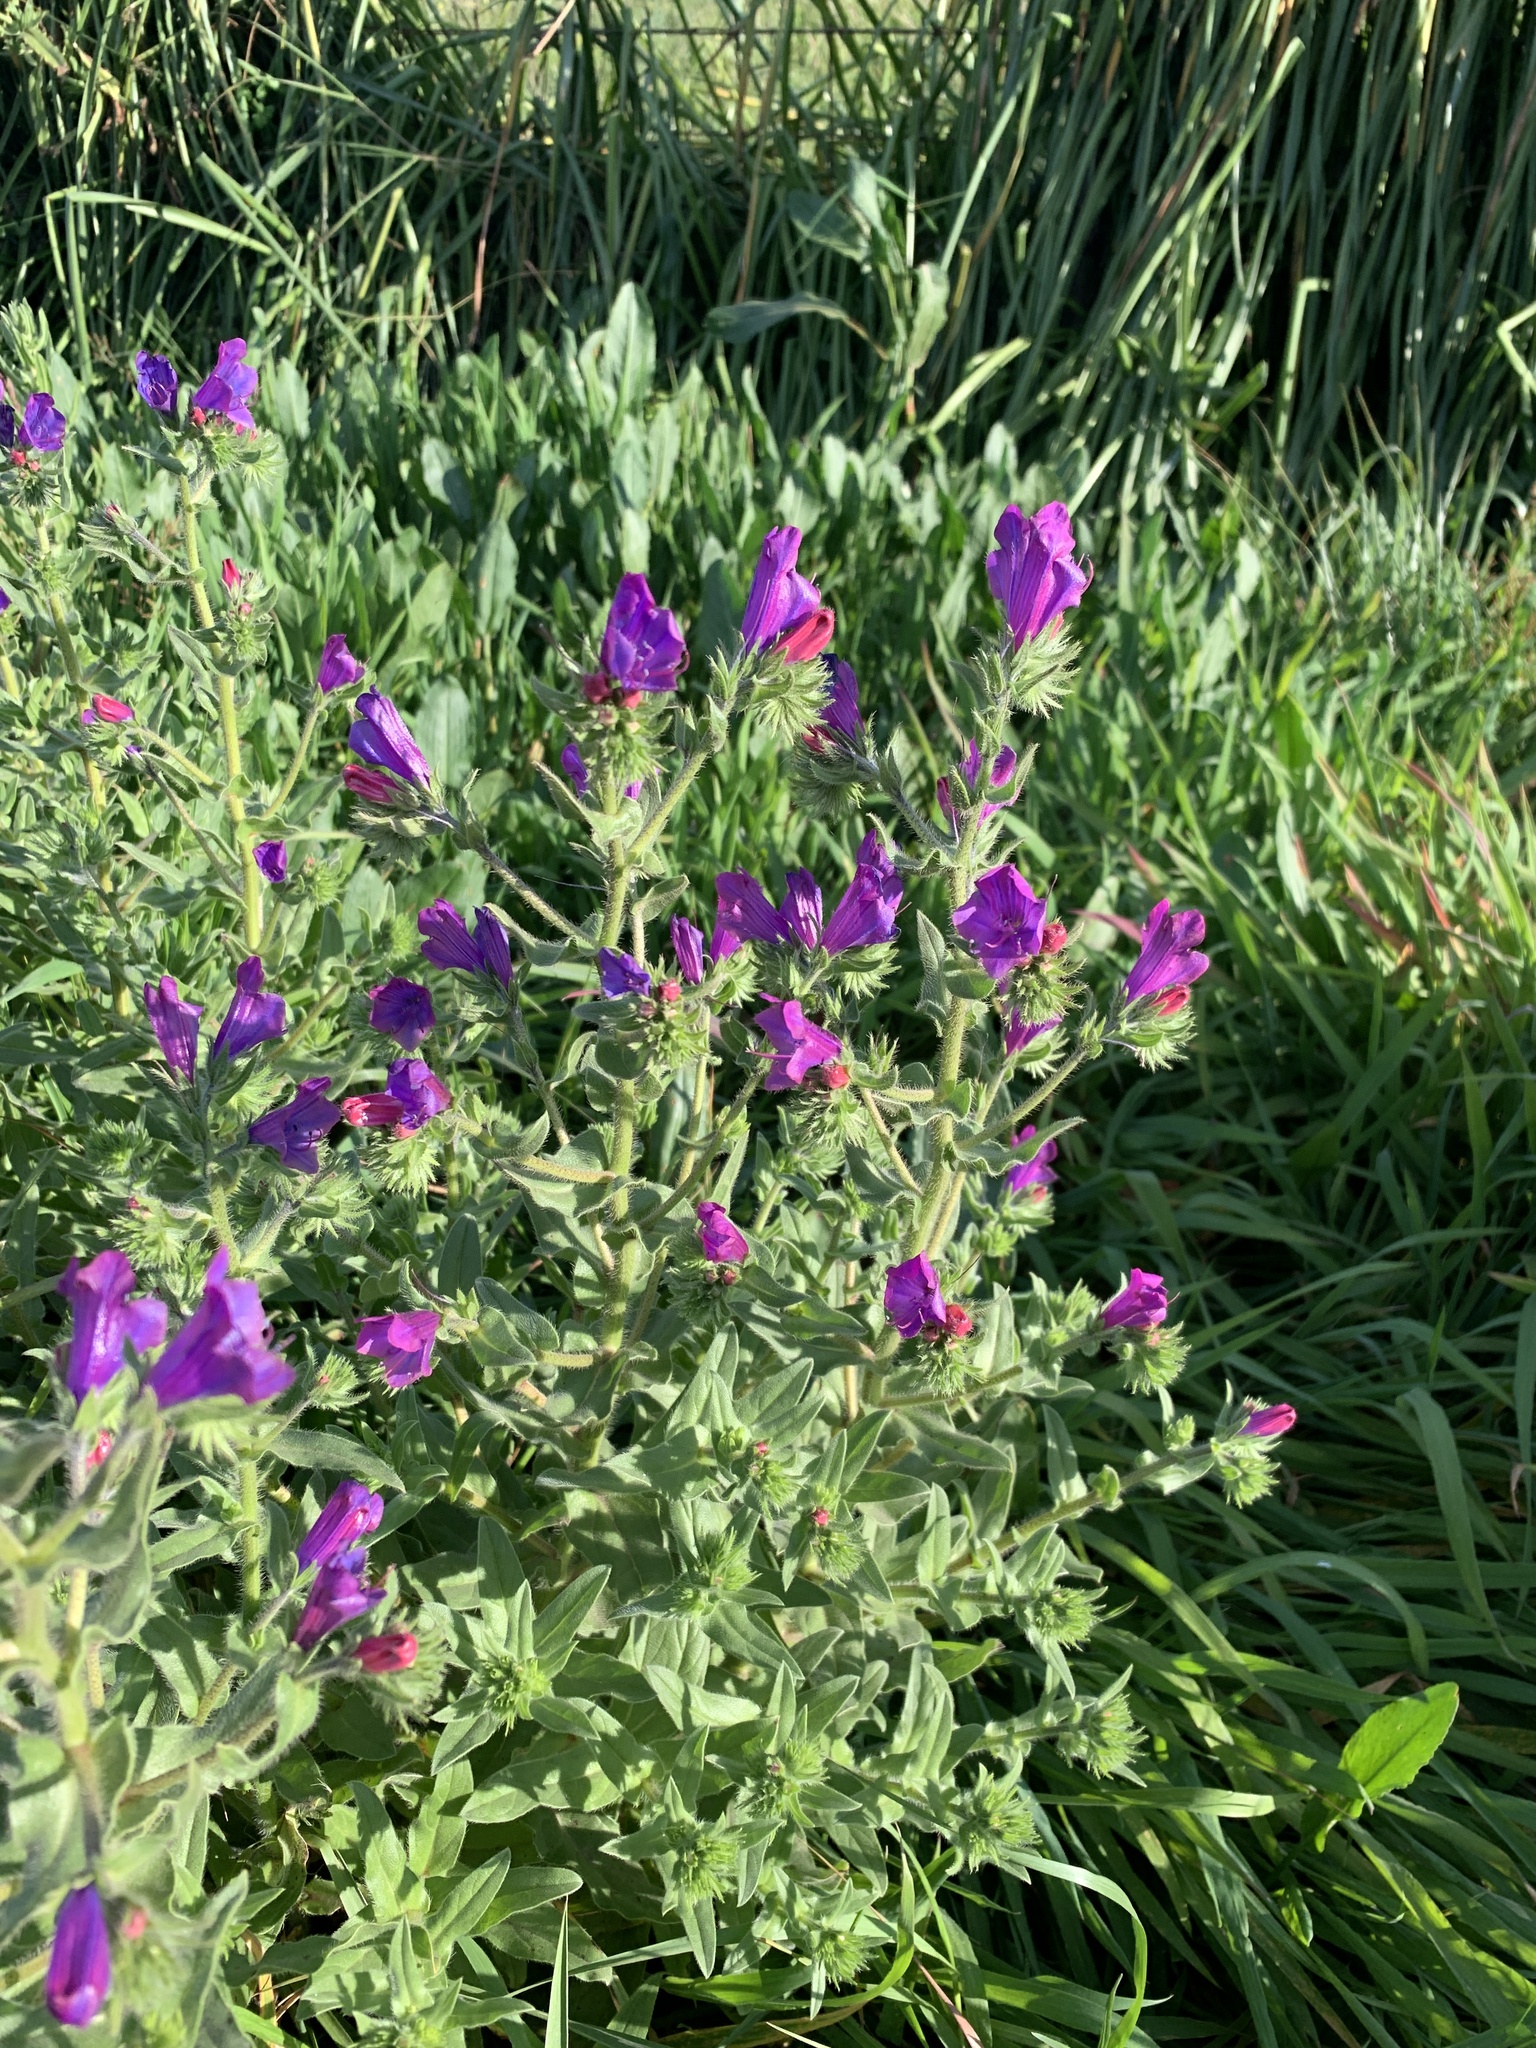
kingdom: Plantae
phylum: Tracheophyta
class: Magnoliopsida
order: Boraginales
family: Boraginaceae
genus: Echium
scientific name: Echium plantagineum
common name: Purple viper's-bugloss
